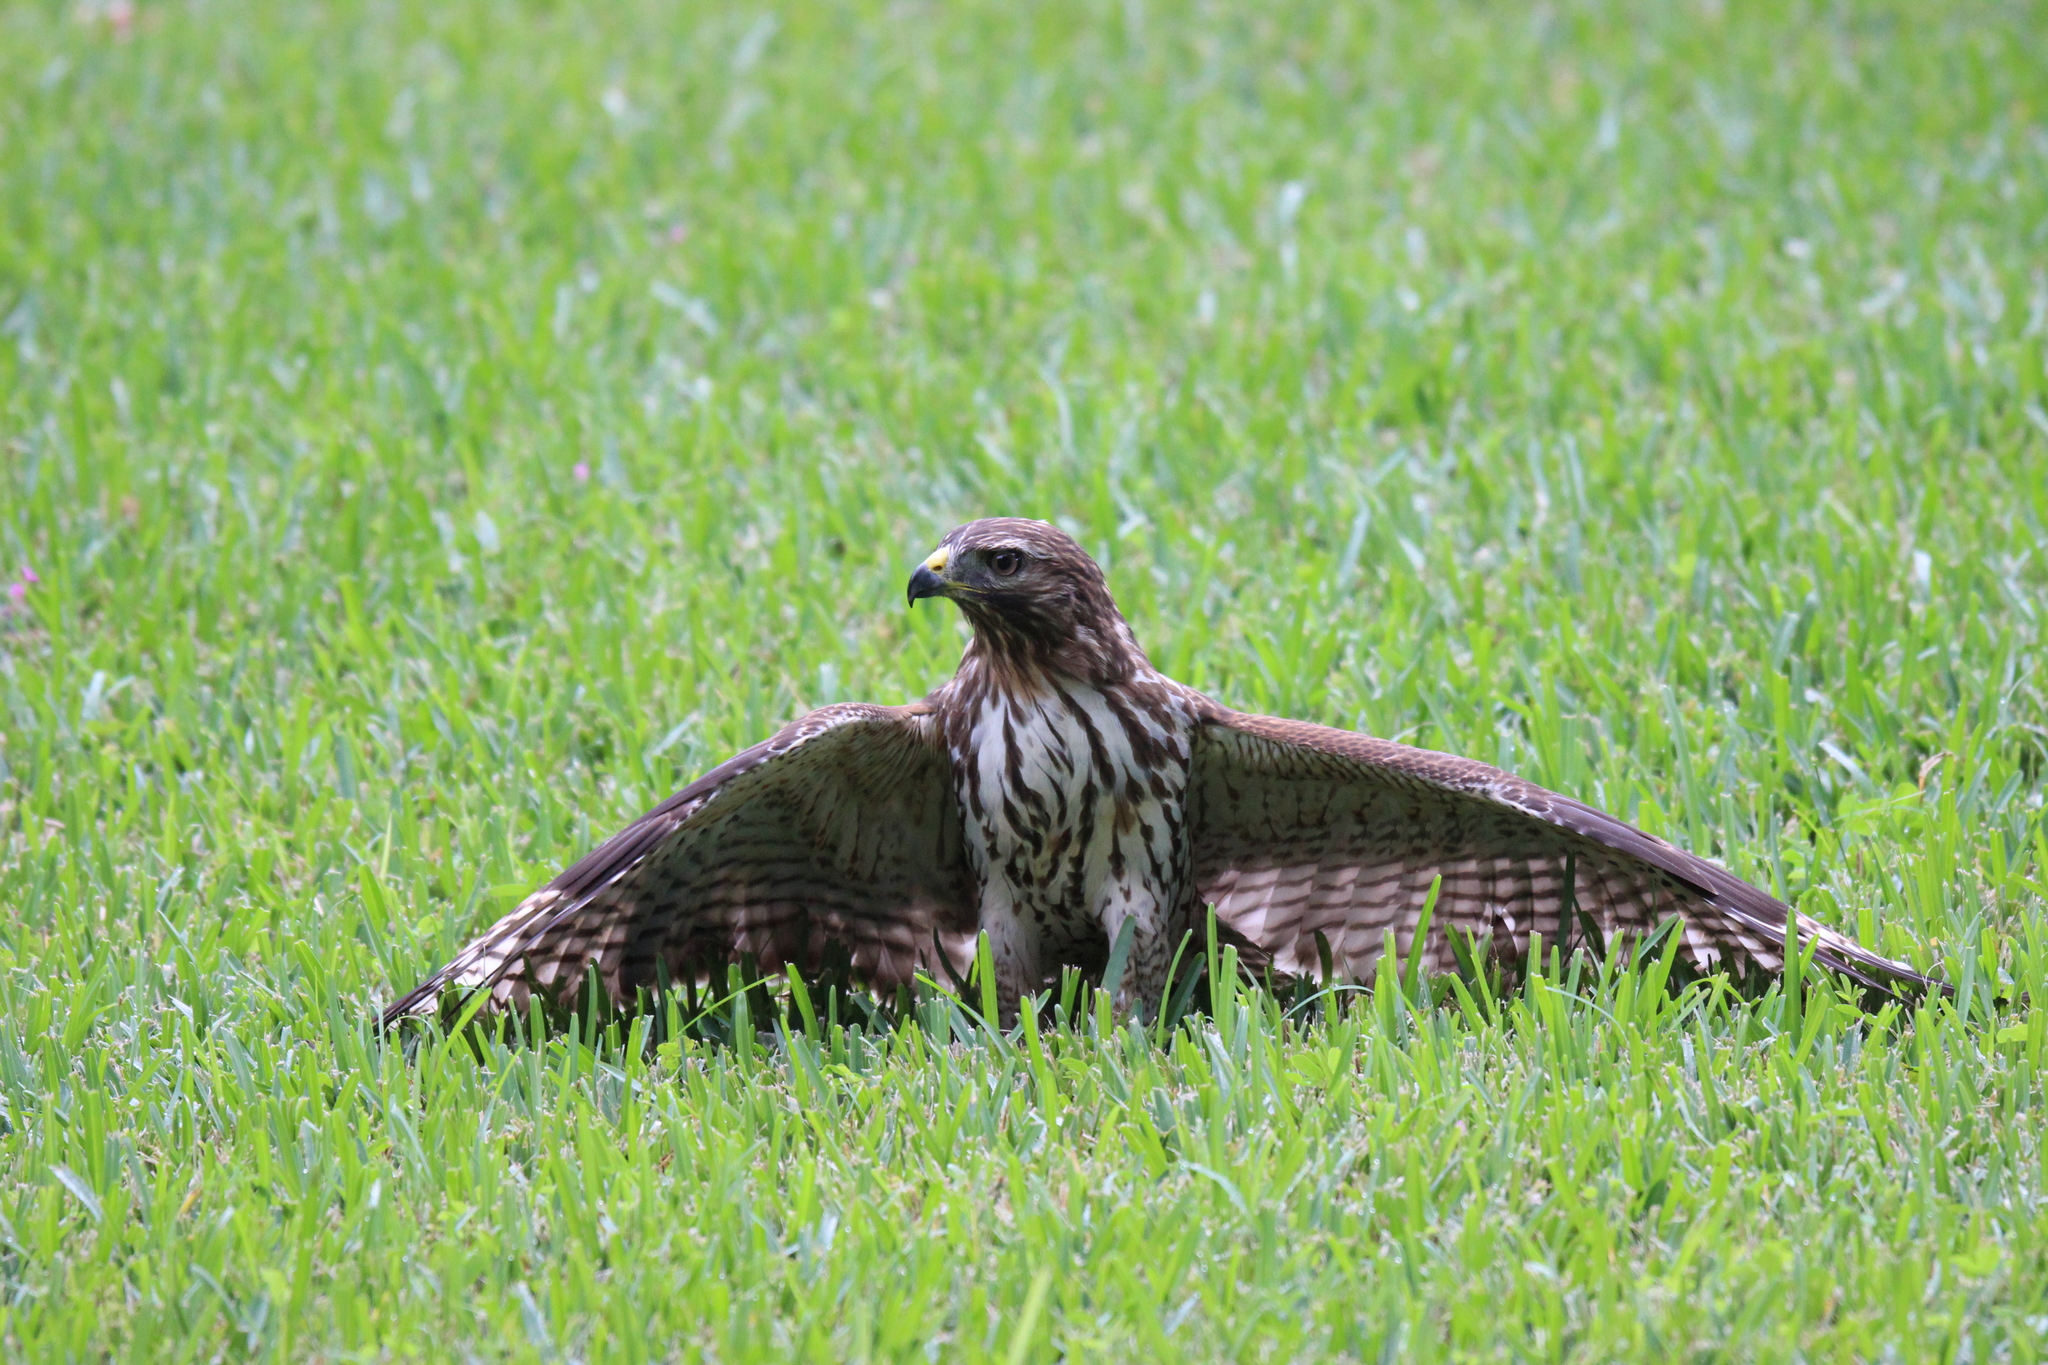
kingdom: Animalia
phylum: Chordata
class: Aves
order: Accipitriformes
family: Accipitridae
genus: Buteo
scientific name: Buteo lineatus
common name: Red-shouldered hawk
